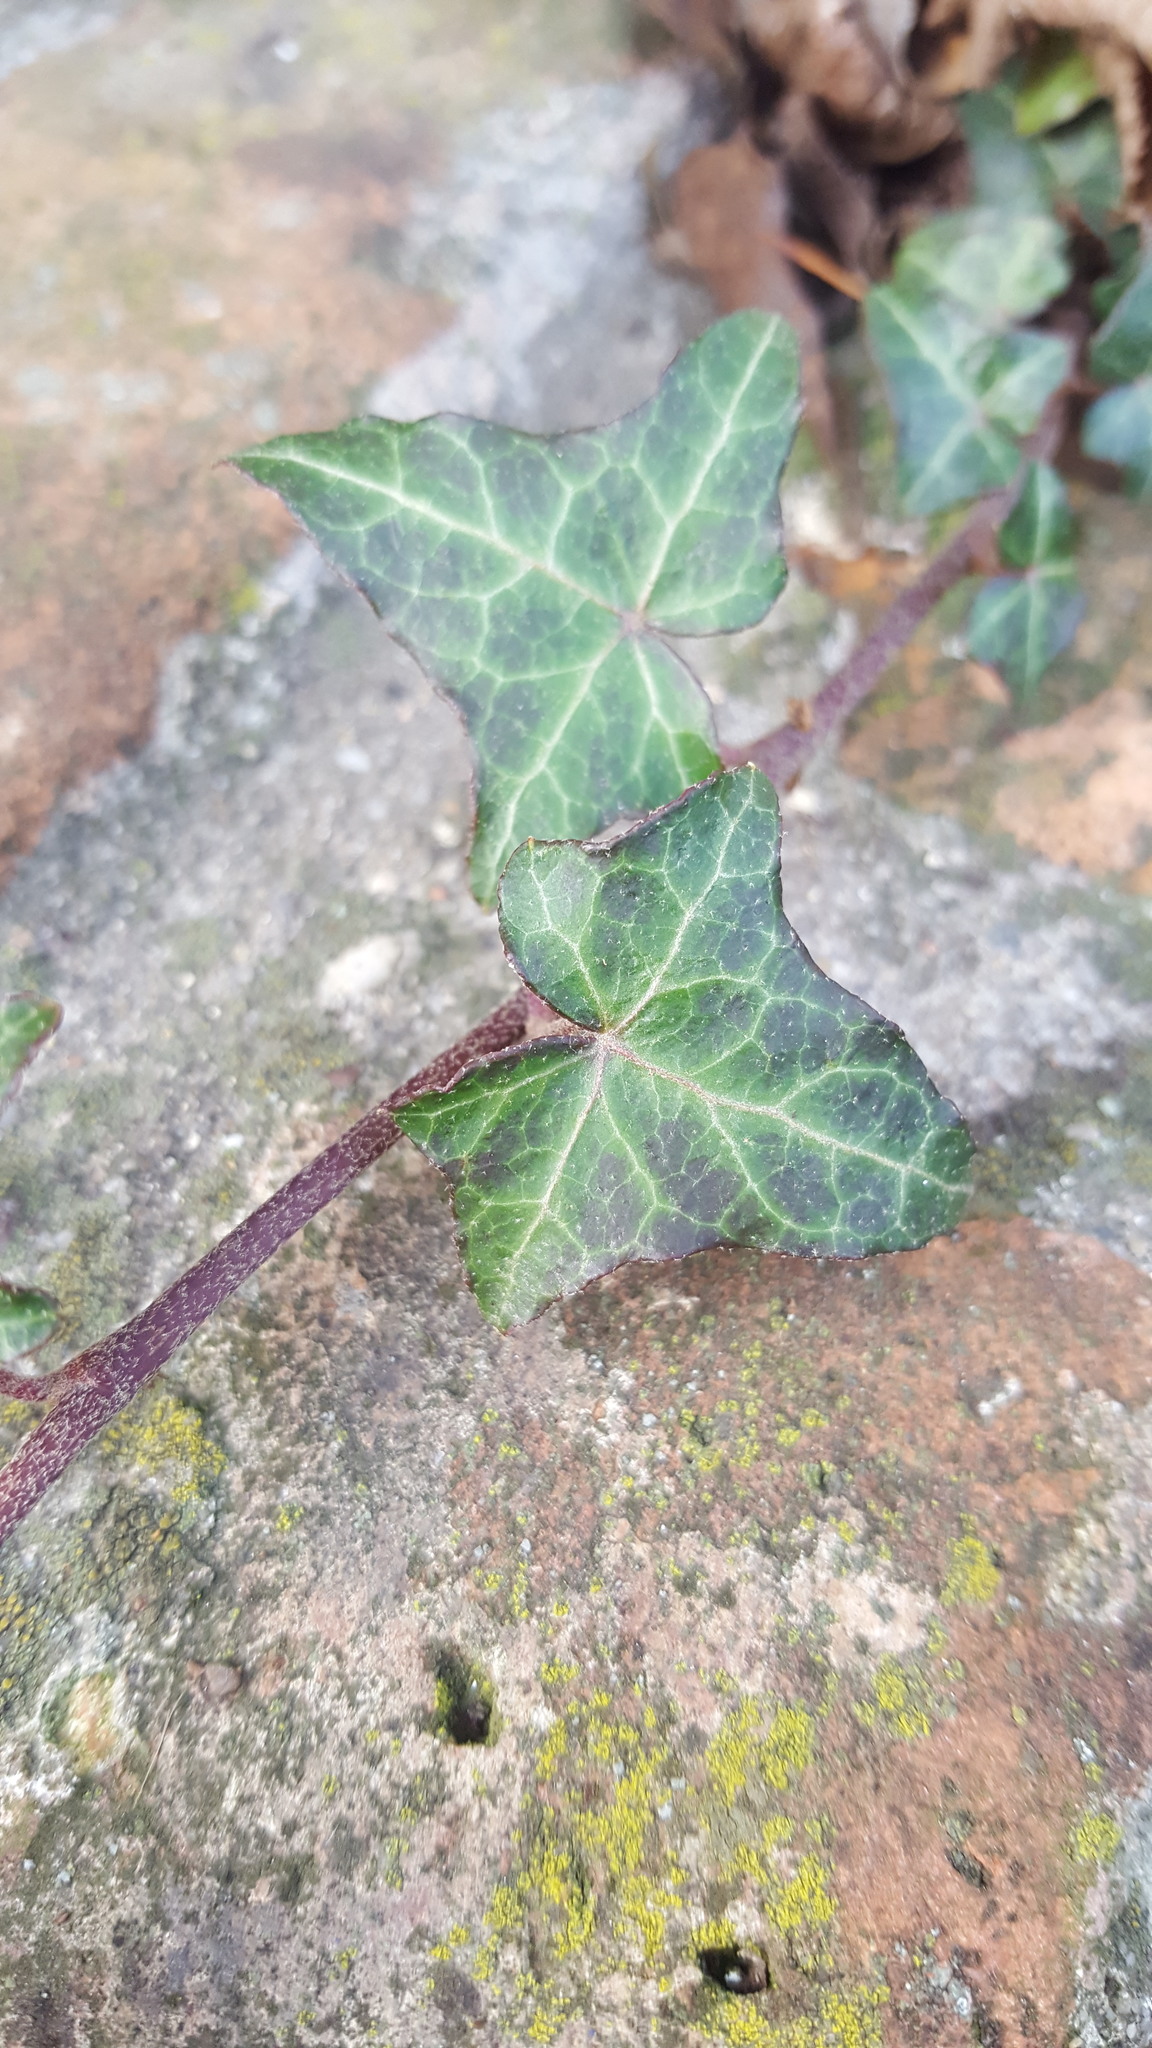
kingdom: Plantae
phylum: Tracheophyta
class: Magnoliopsida
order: Apiales
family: Araliaceae
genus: Hedera
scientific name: Hedera helix
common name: Ivy
